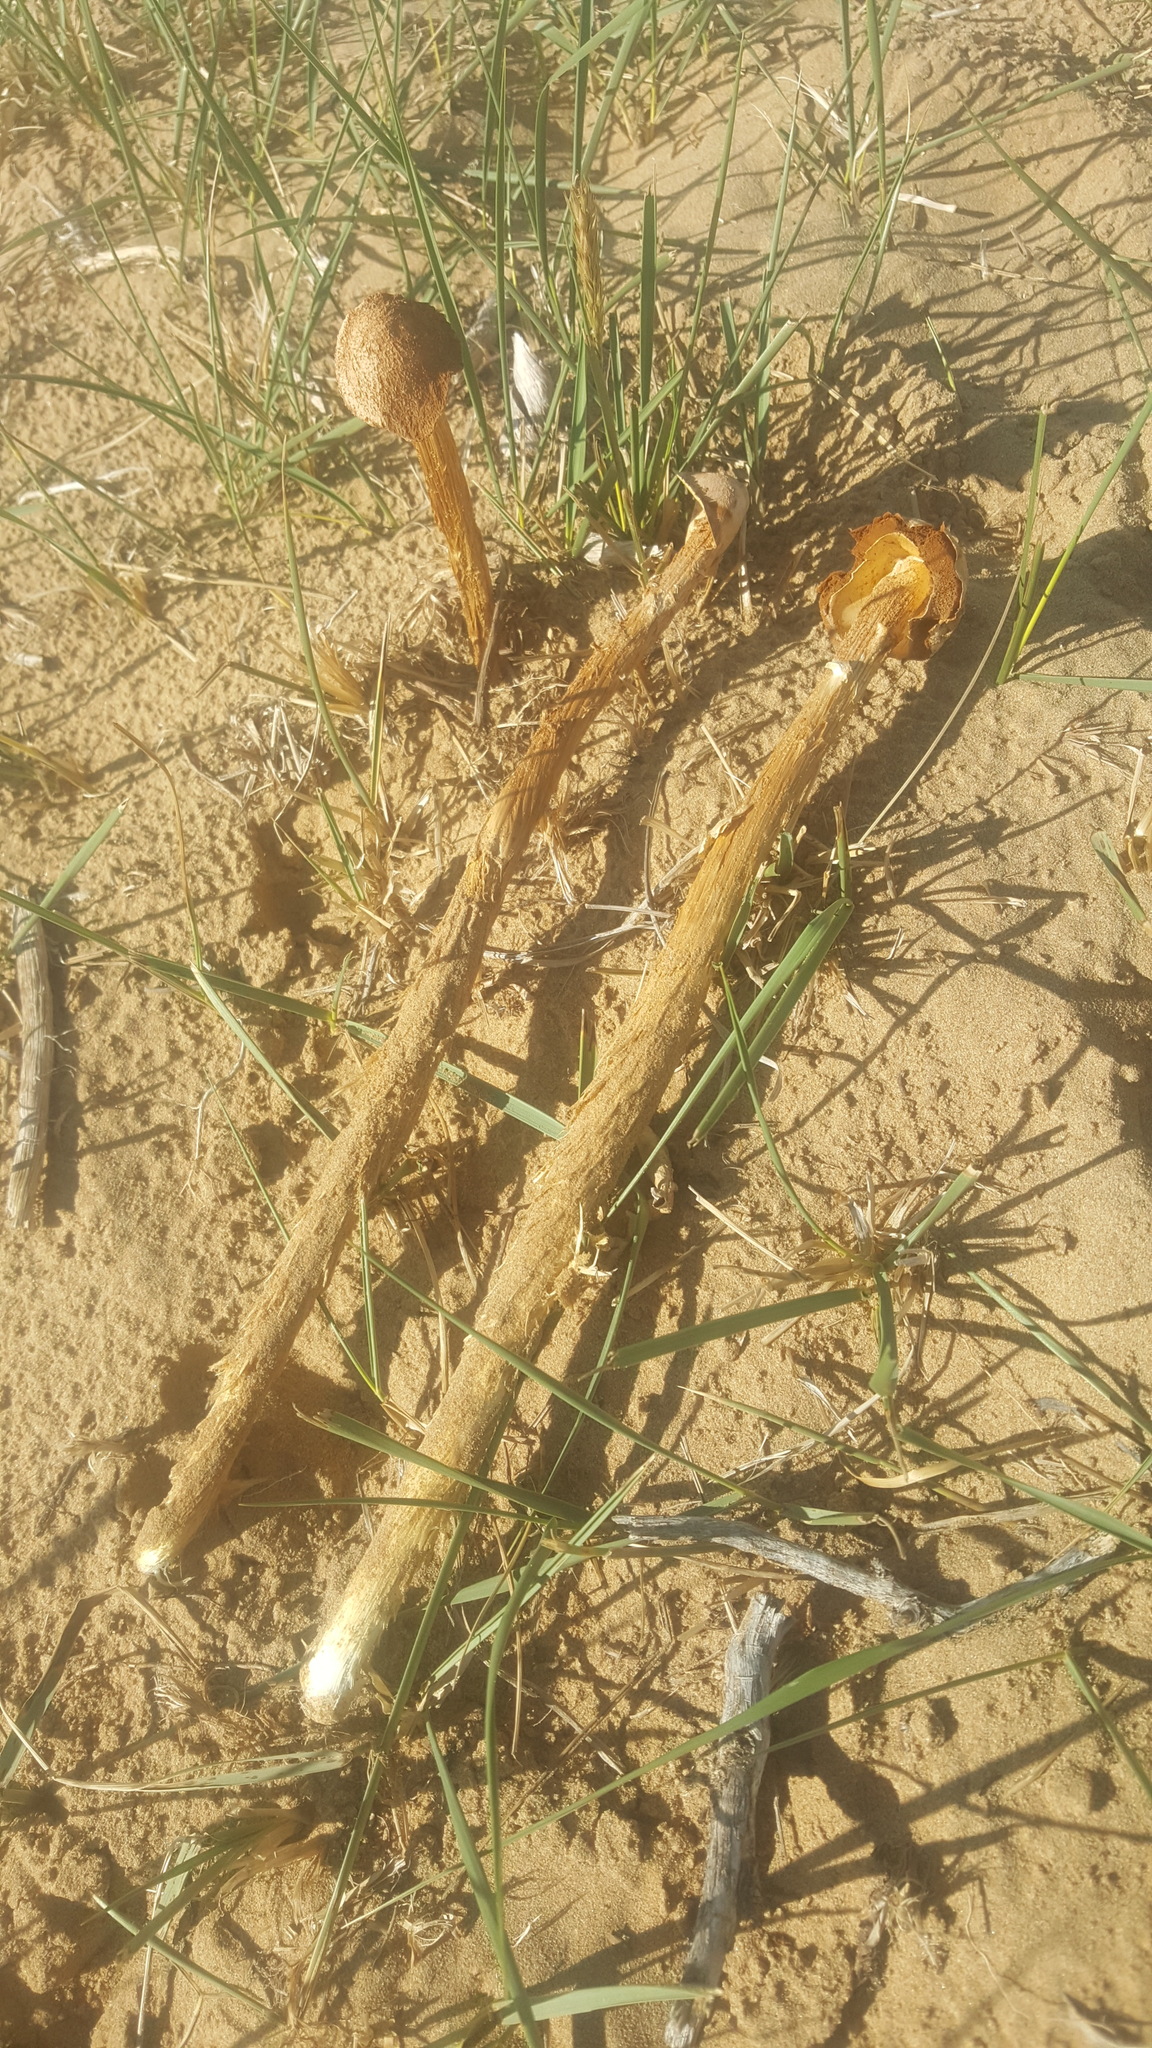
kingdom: Fungi
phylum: Basidiomycota
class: Agaricomycetes
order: Agaricales
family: Agaricaceae
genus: Battarrea
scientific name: Battarrea phalloides
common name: Sandy stiltball
